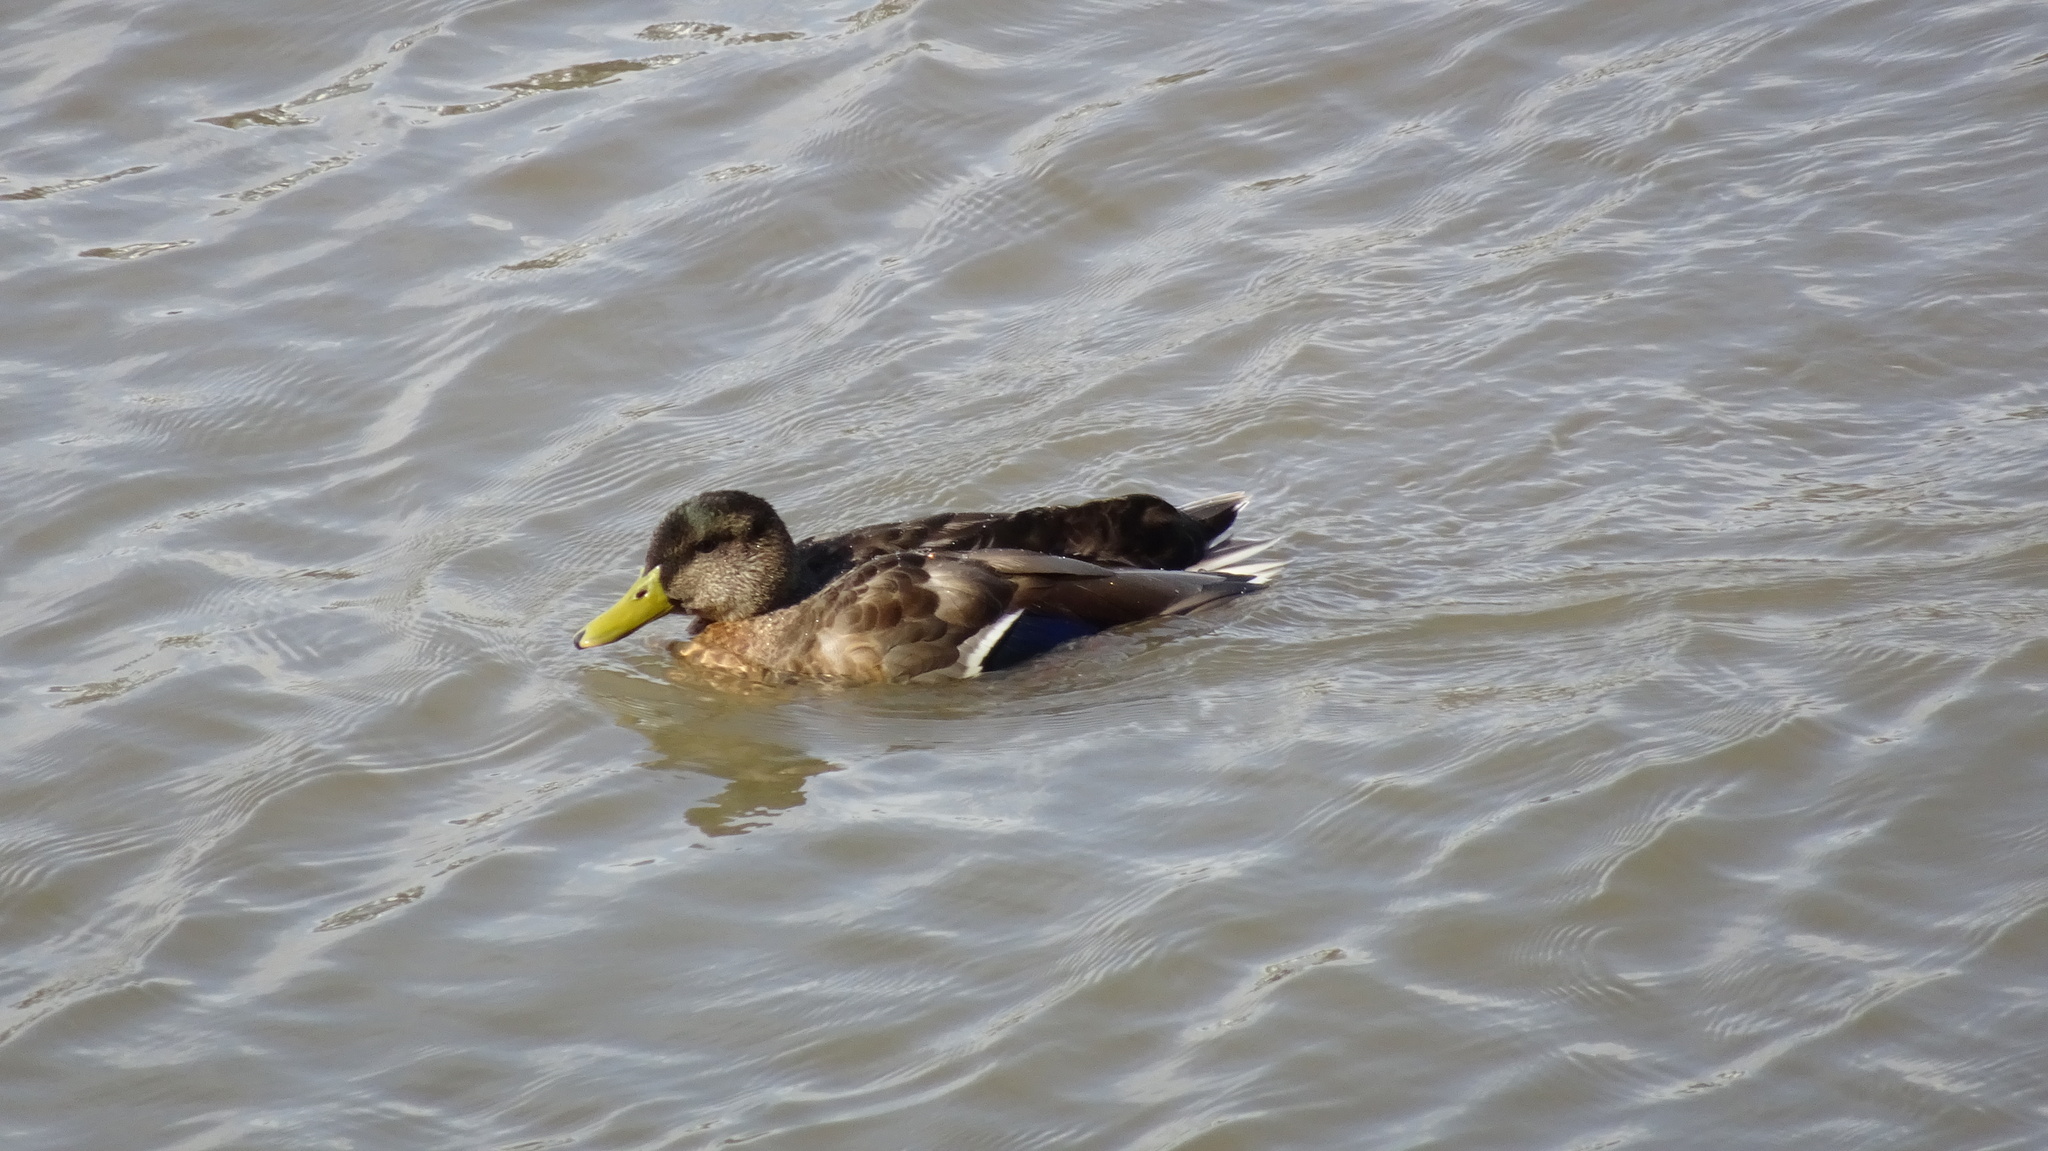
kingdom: Animalia
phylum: Chordata
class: Aves
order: Anseriformes
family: Anatidae
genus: Anas
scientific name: Anas platyrhynchos
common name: Mallard
